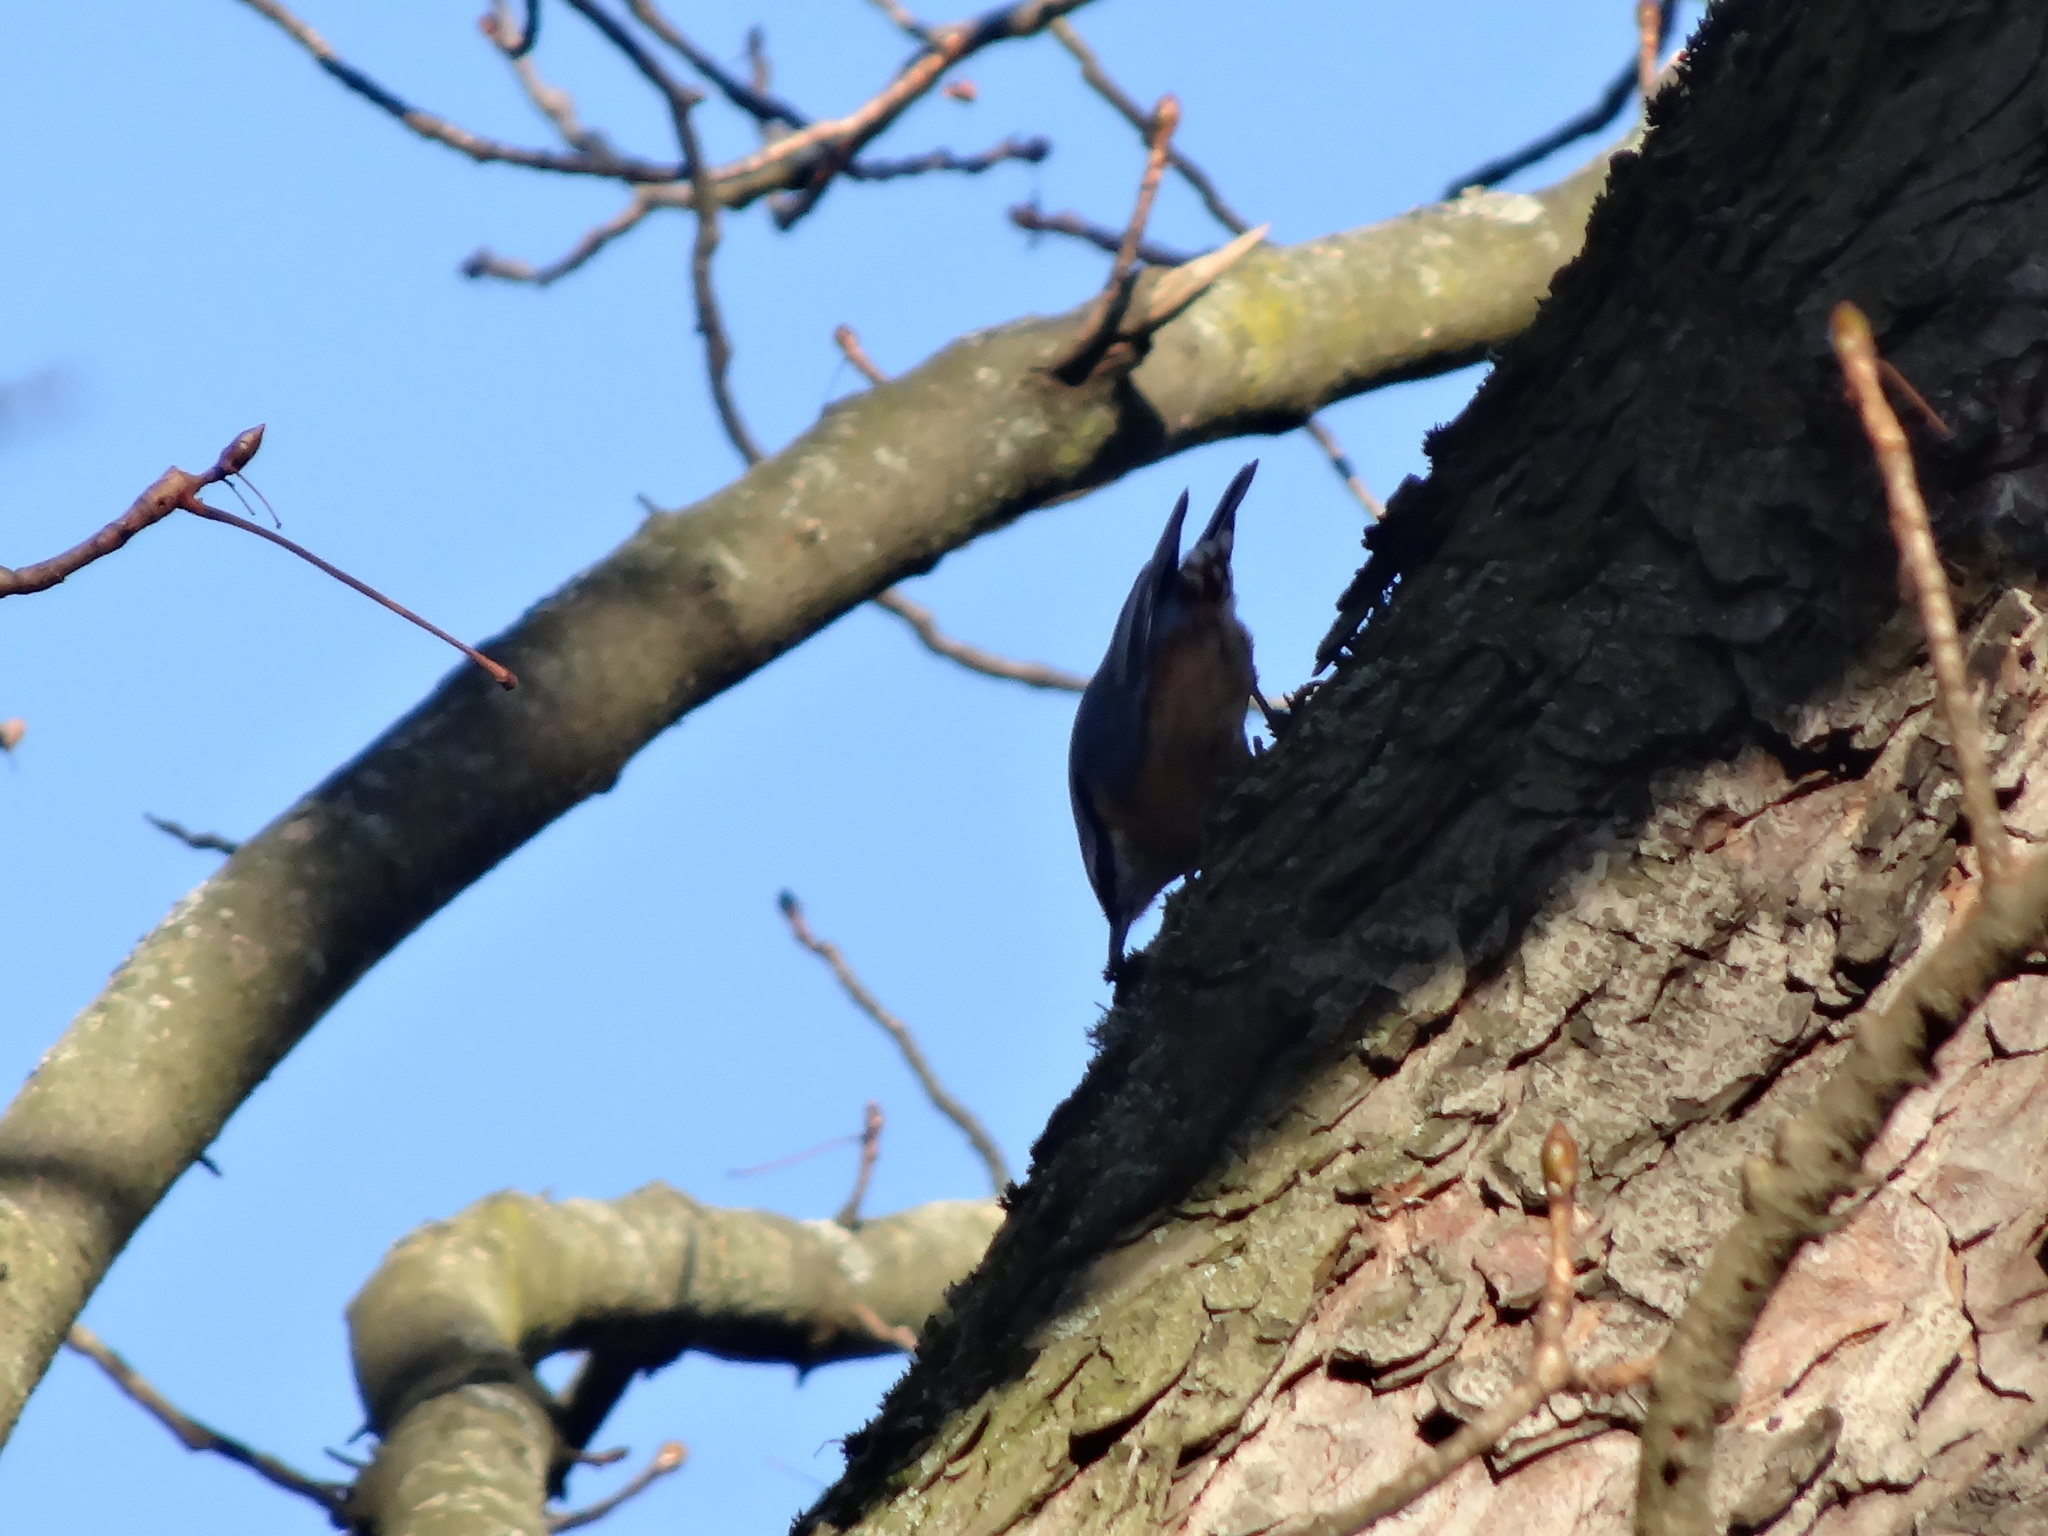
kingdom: Animalia
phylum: Chordata
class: Aves
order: Passeriformes
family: Sittidae
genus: Sitta
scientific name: Sitta europaea
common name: Eurasian nuthatch
